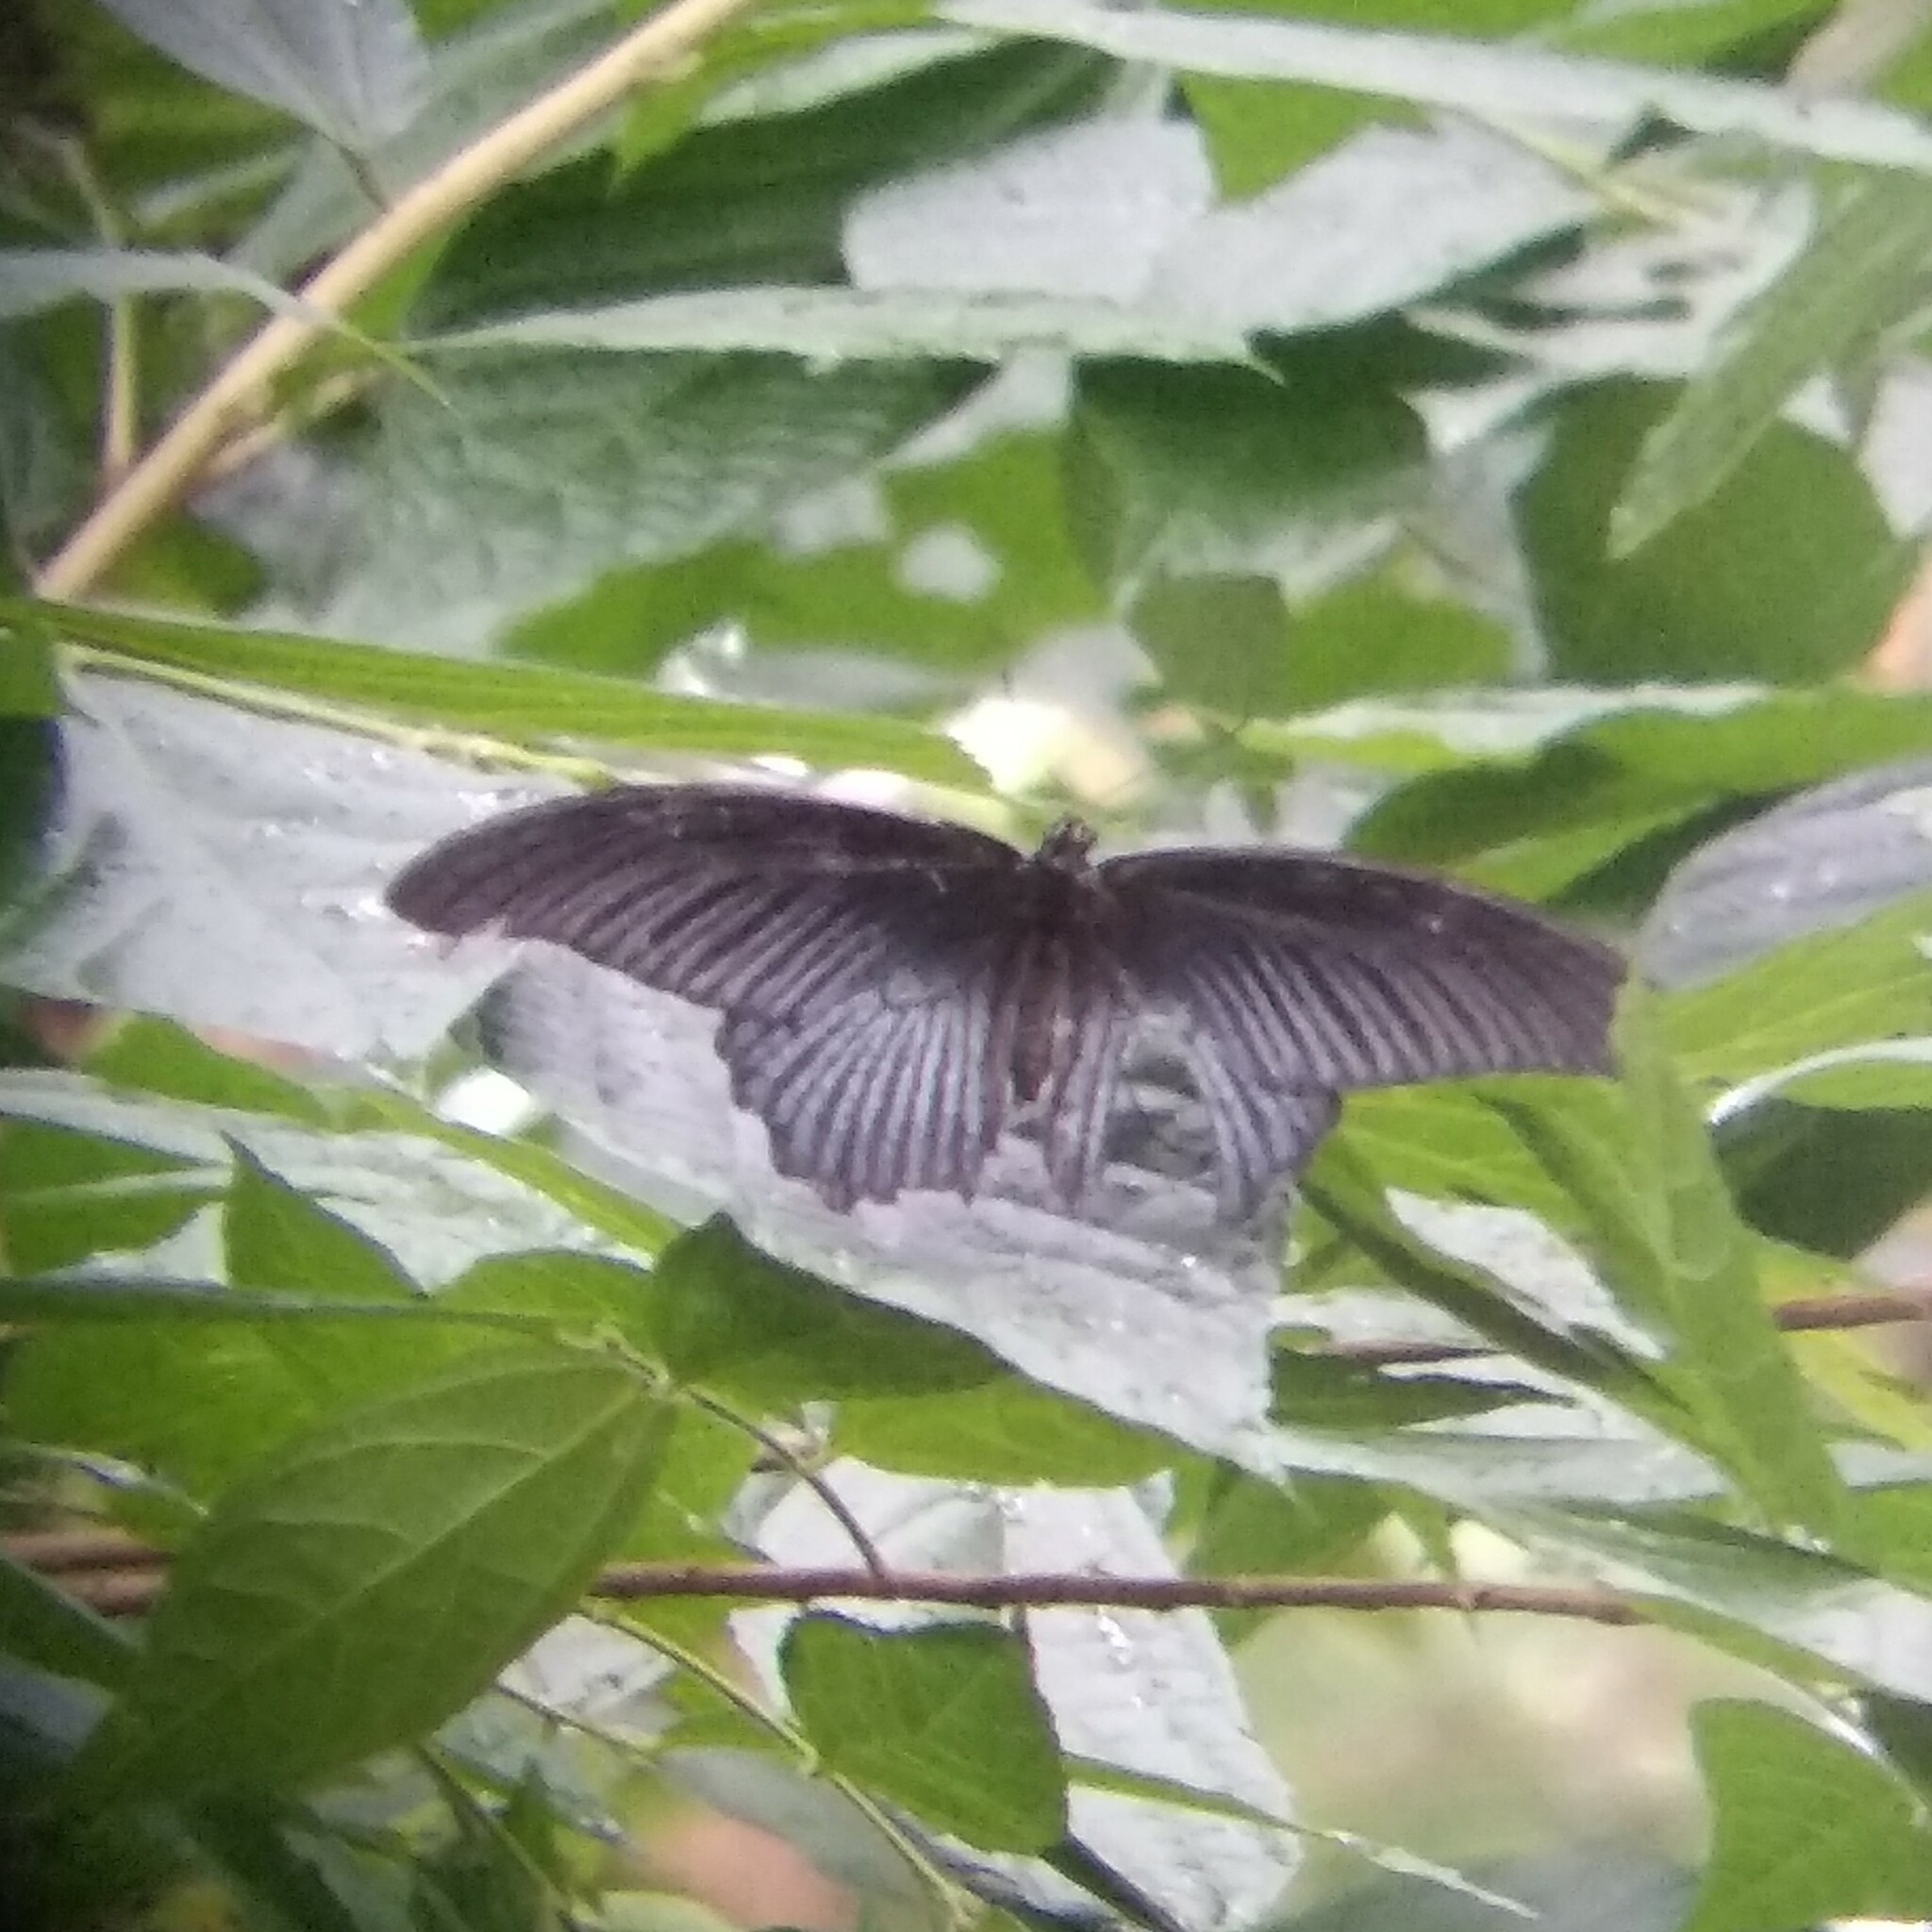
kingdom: Animalia
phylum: Arthropoda
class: Insecta
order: Lepidoptera
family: Papilionidae
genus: Papilio
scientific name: Papilio protenor
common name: Spangle
